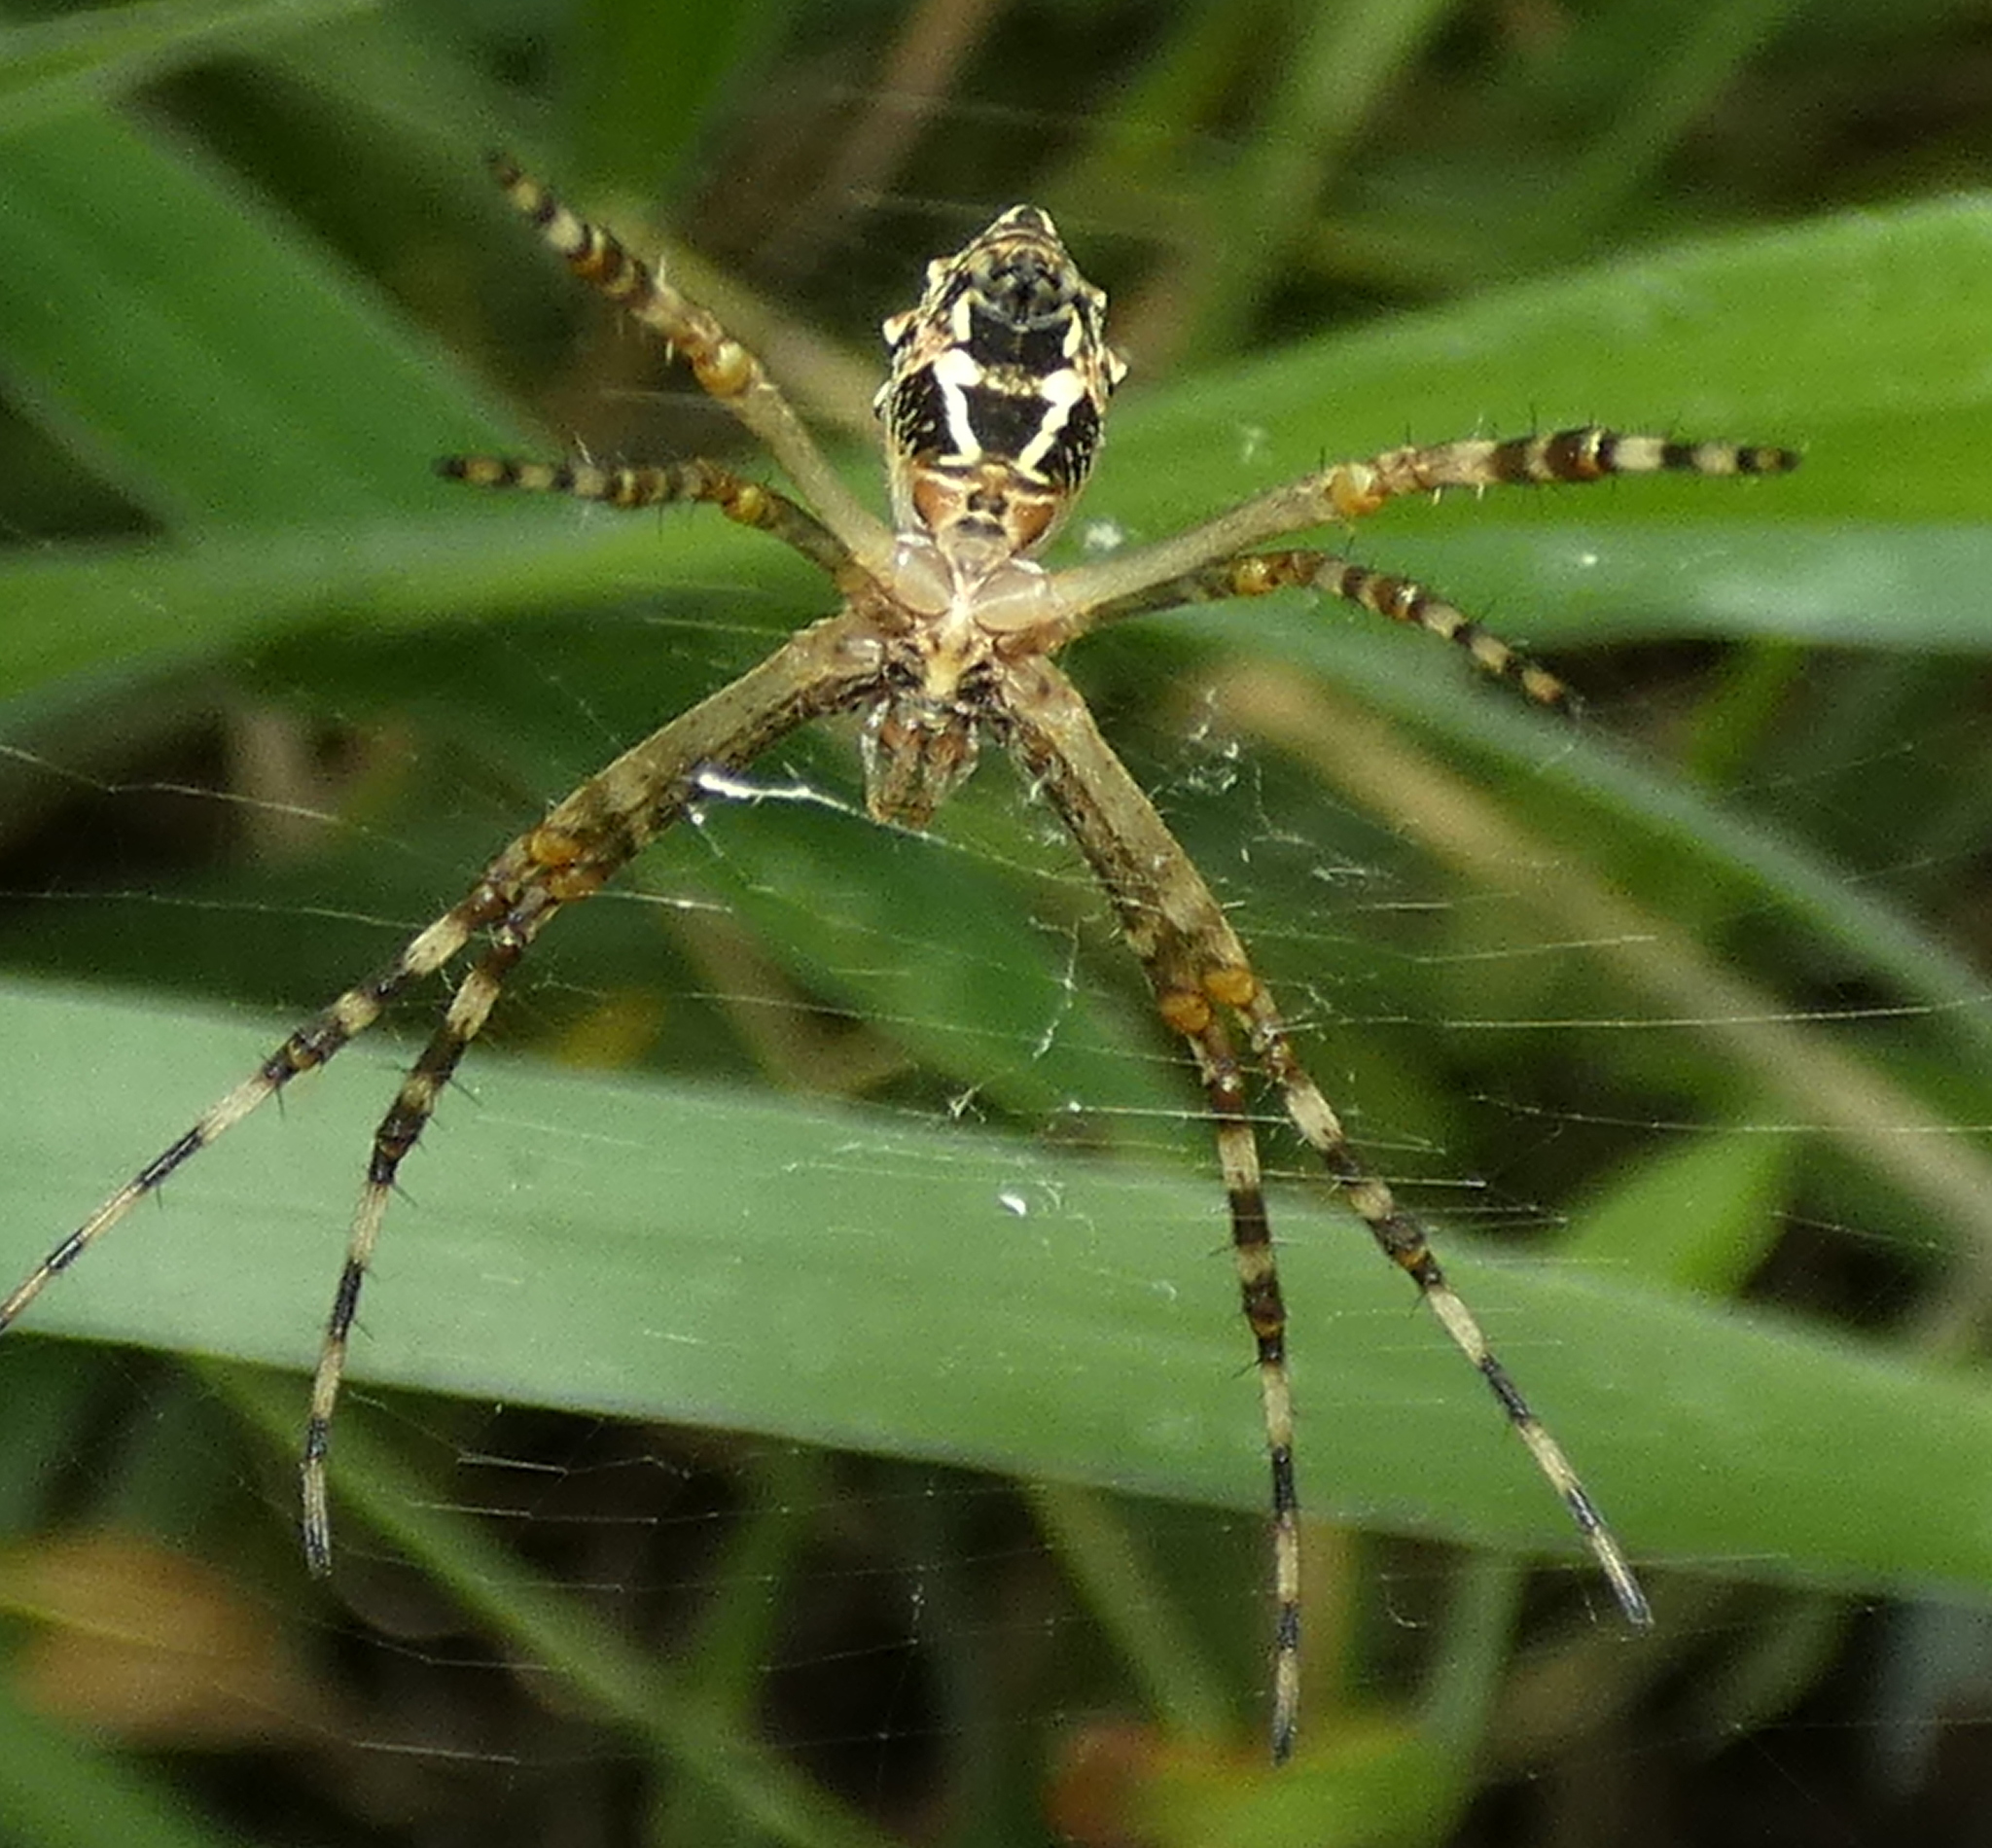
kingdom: Animalia
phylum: Arthropoda
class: Arachnida
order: Araneae
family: Araneidae
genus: Argiope
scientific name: Argiope argentata
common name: Orb weavers
